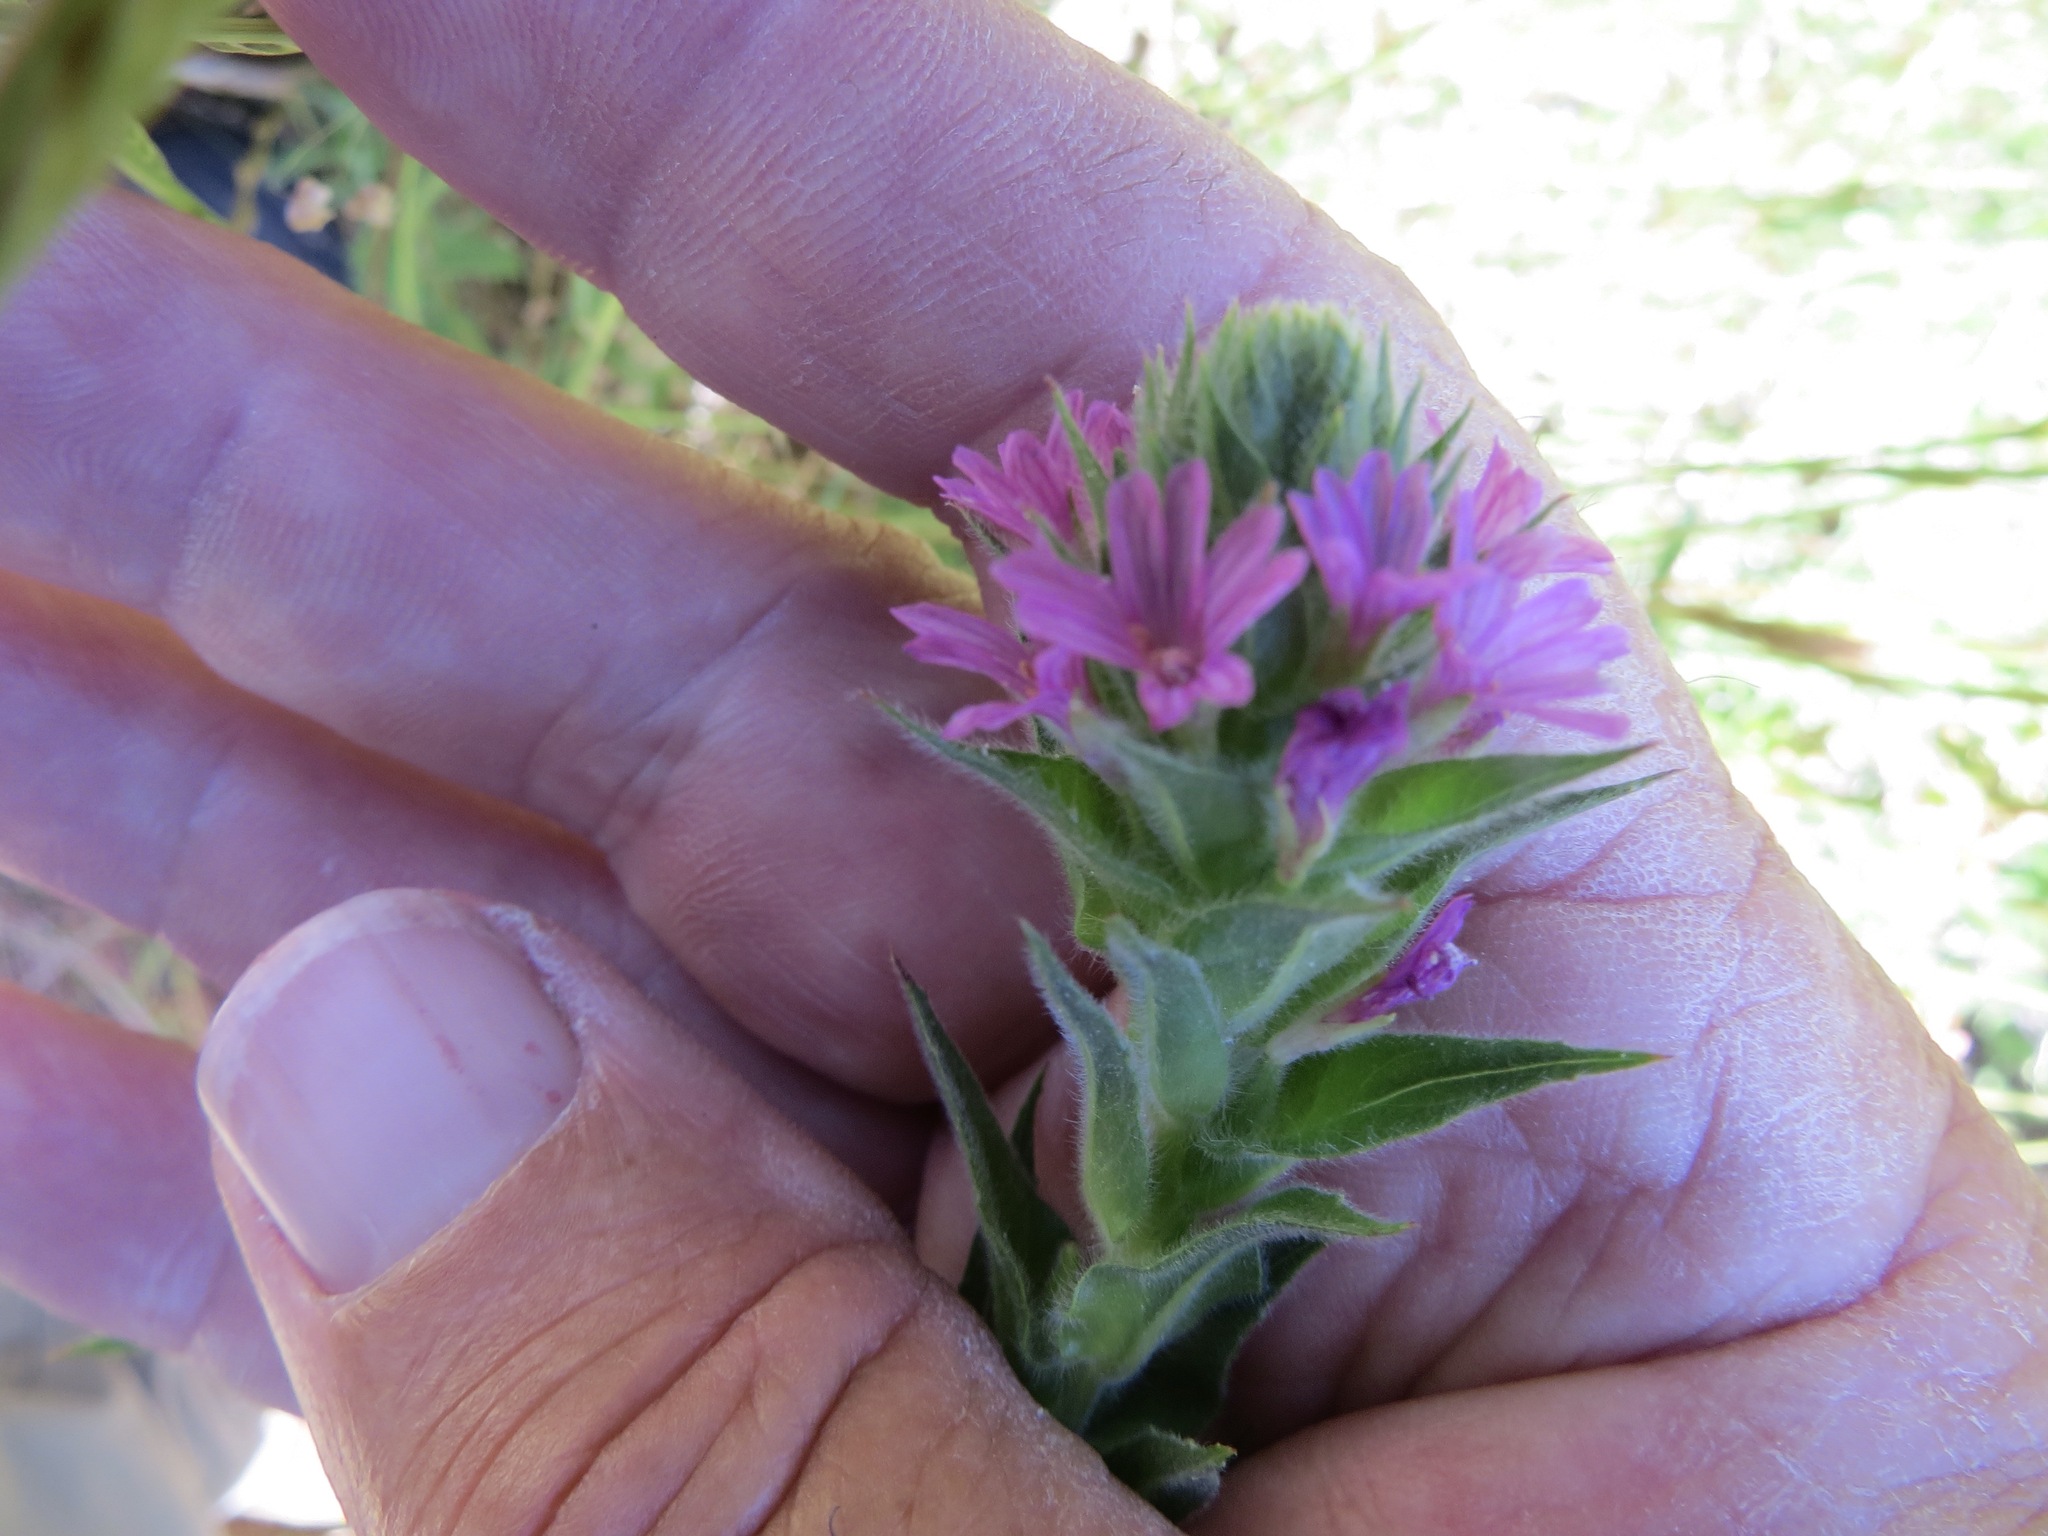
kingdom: Plantae
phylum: Tracheophyta
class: Magnoliopsida
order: Myrtales
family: Onagraceae
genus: Epilobium
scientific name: Epilobium densiflorum
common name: Dense spike-primrose
